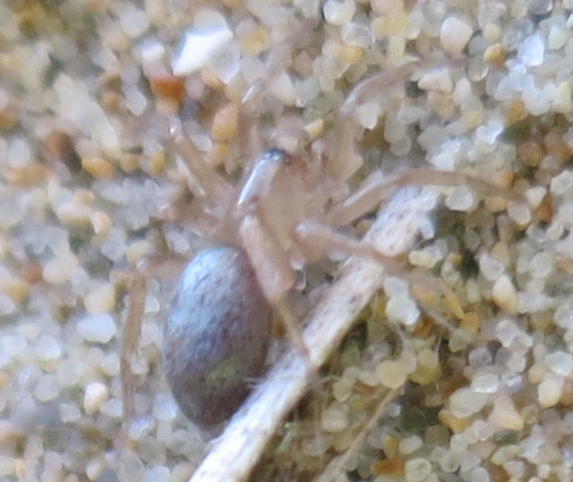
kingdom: Animalia
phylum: Arthropoda
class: Arachnida
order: Araneae
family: Gnaphosidae
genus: Anzacia
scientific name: Anzacia gemmea
